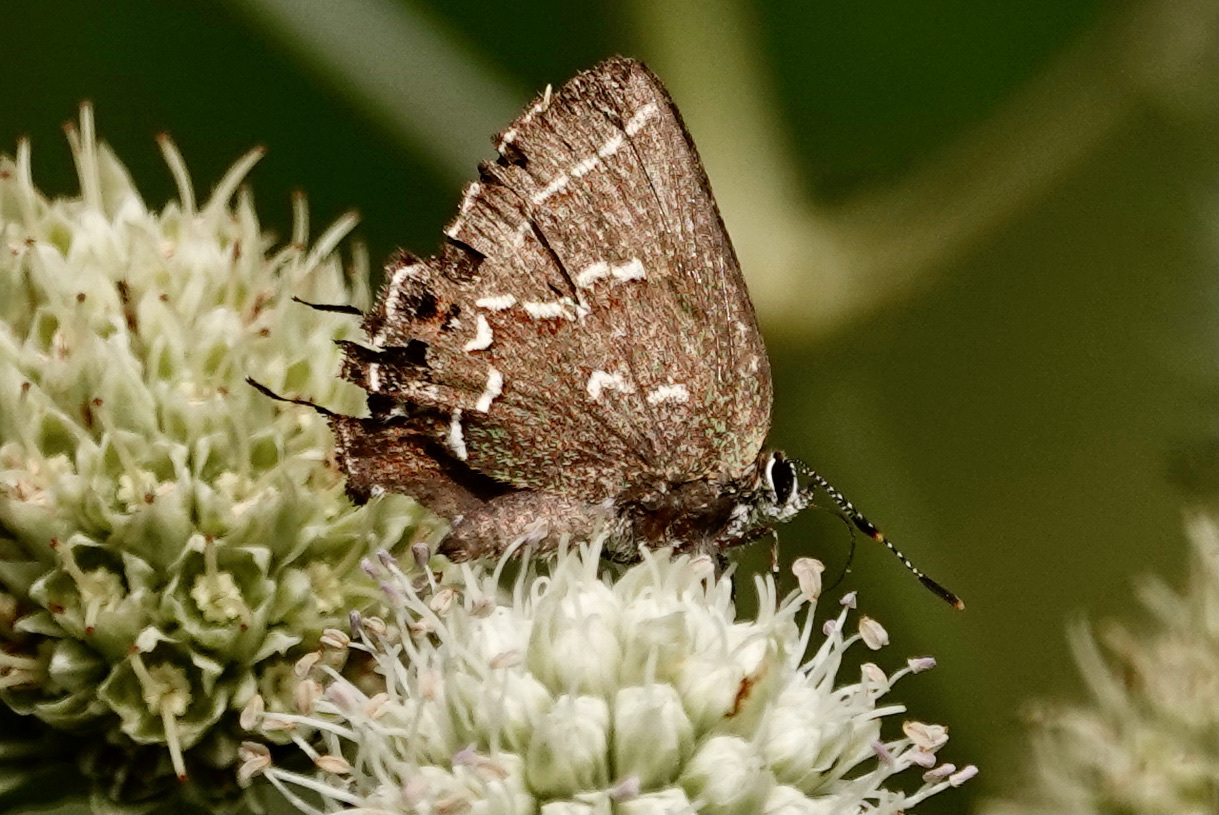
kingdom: Animalia
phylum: Arthropoda
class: Insecta
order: Lepidoptera
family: Lycaenidae
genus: Mitoura
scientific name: Mitoura gryneus
